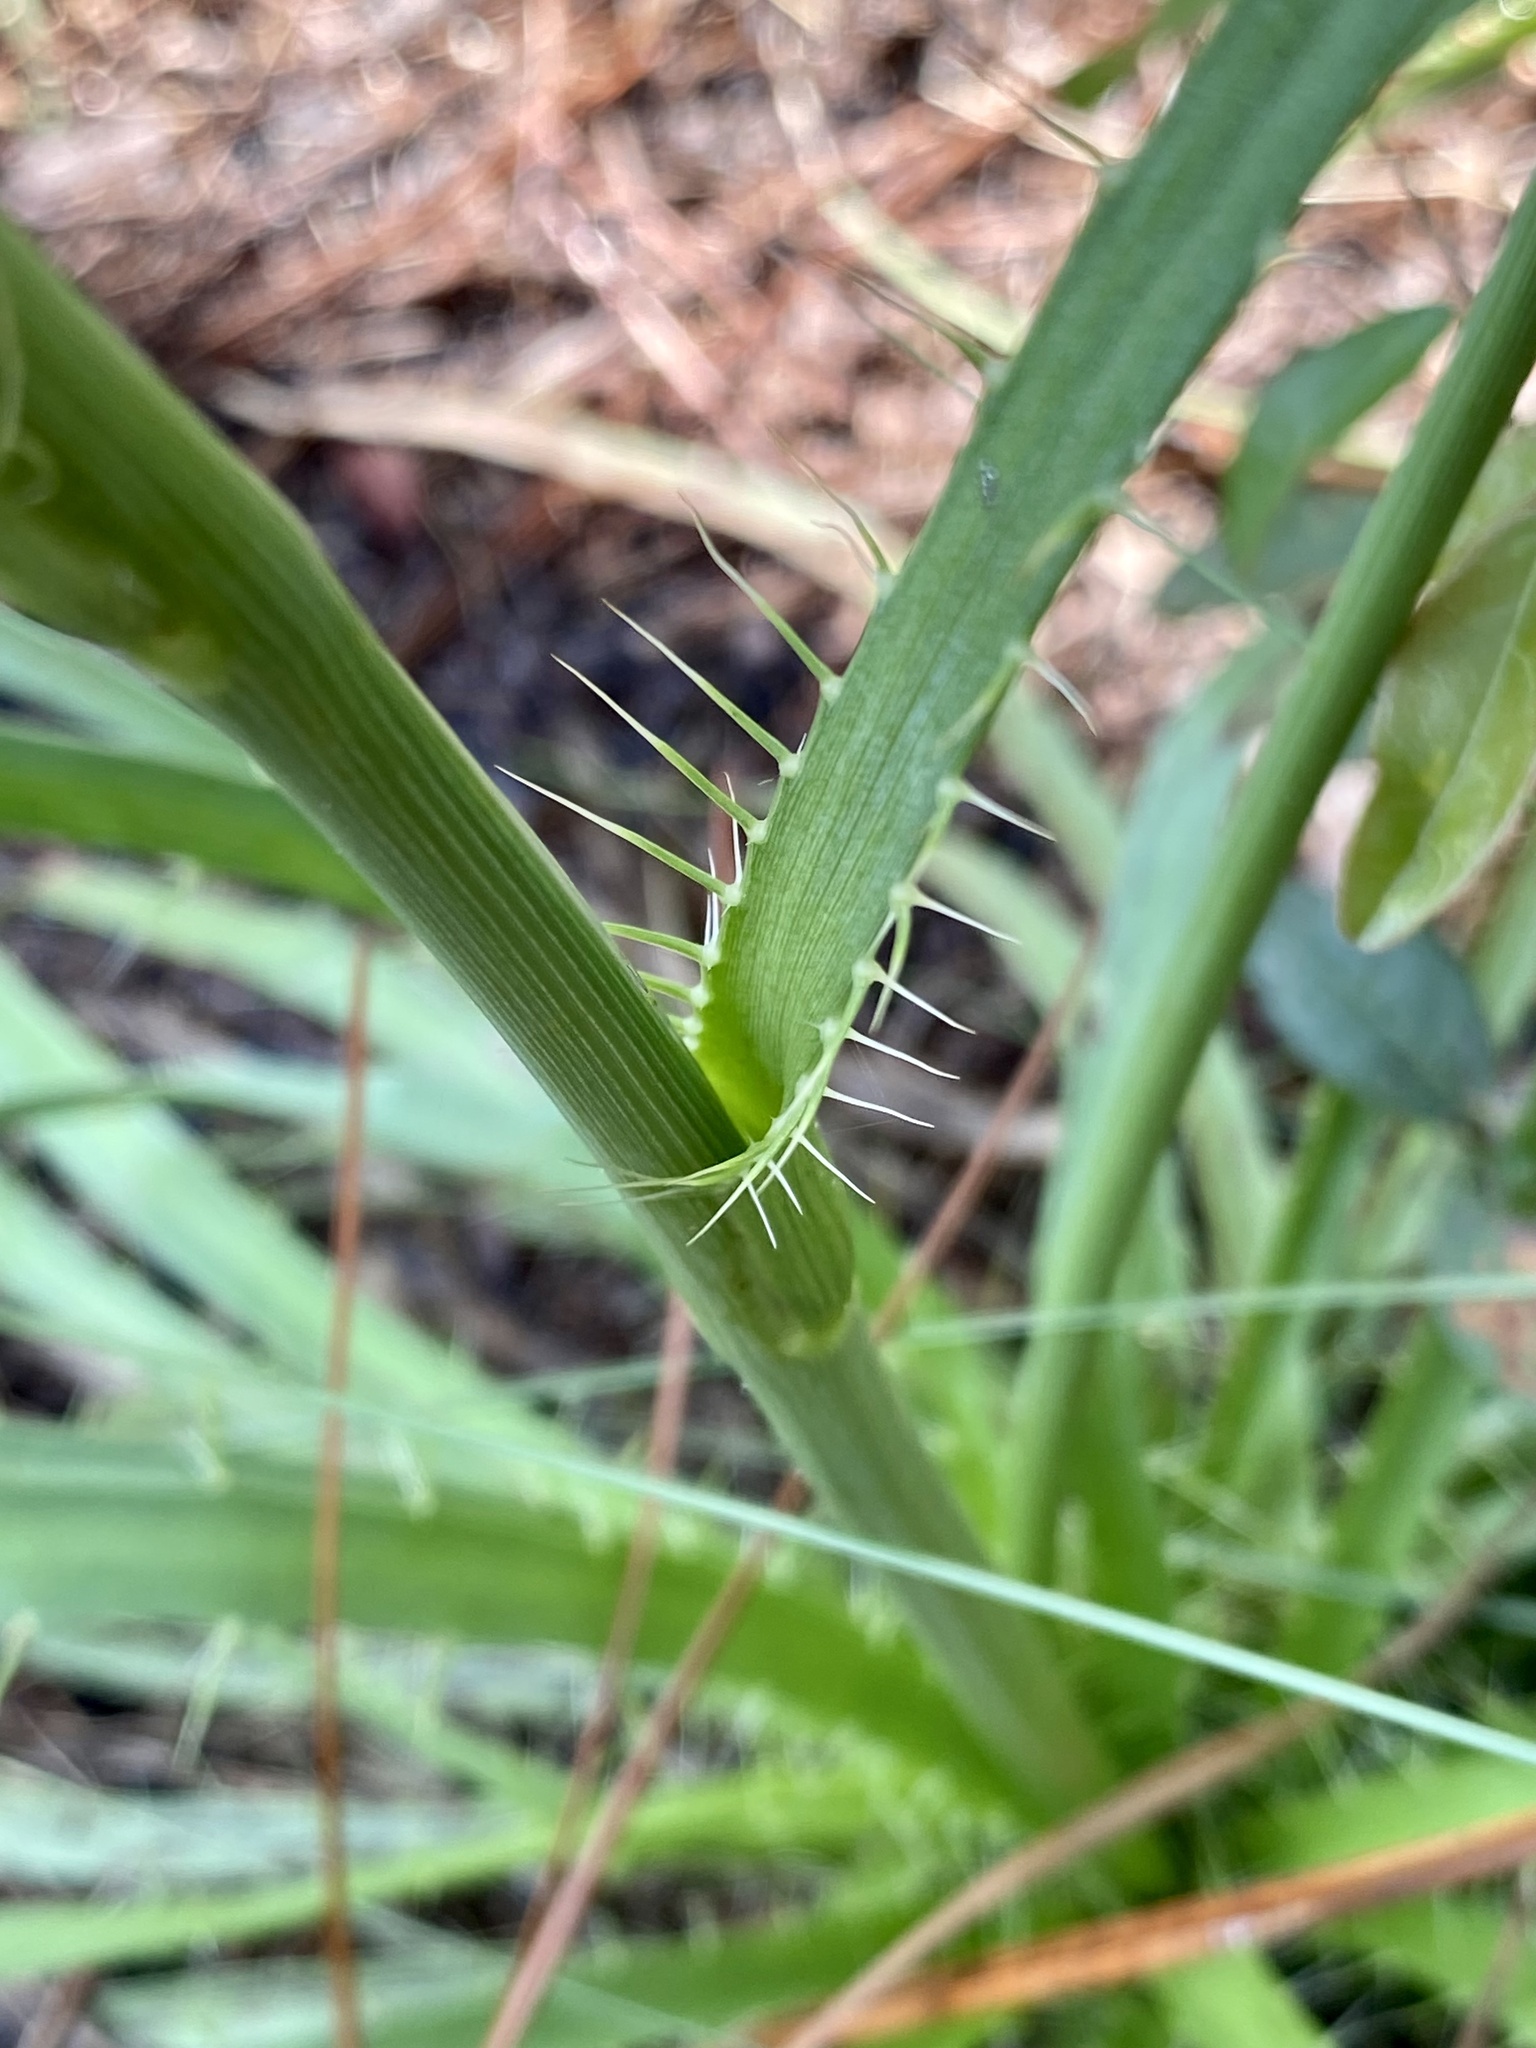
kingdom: Plantae
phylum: Tracheophyta
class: Magnoliopsida
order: Apiales
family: Apiaceae
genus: Eryngium
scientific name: Eryngium yuccifolium
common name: Button eryngo
